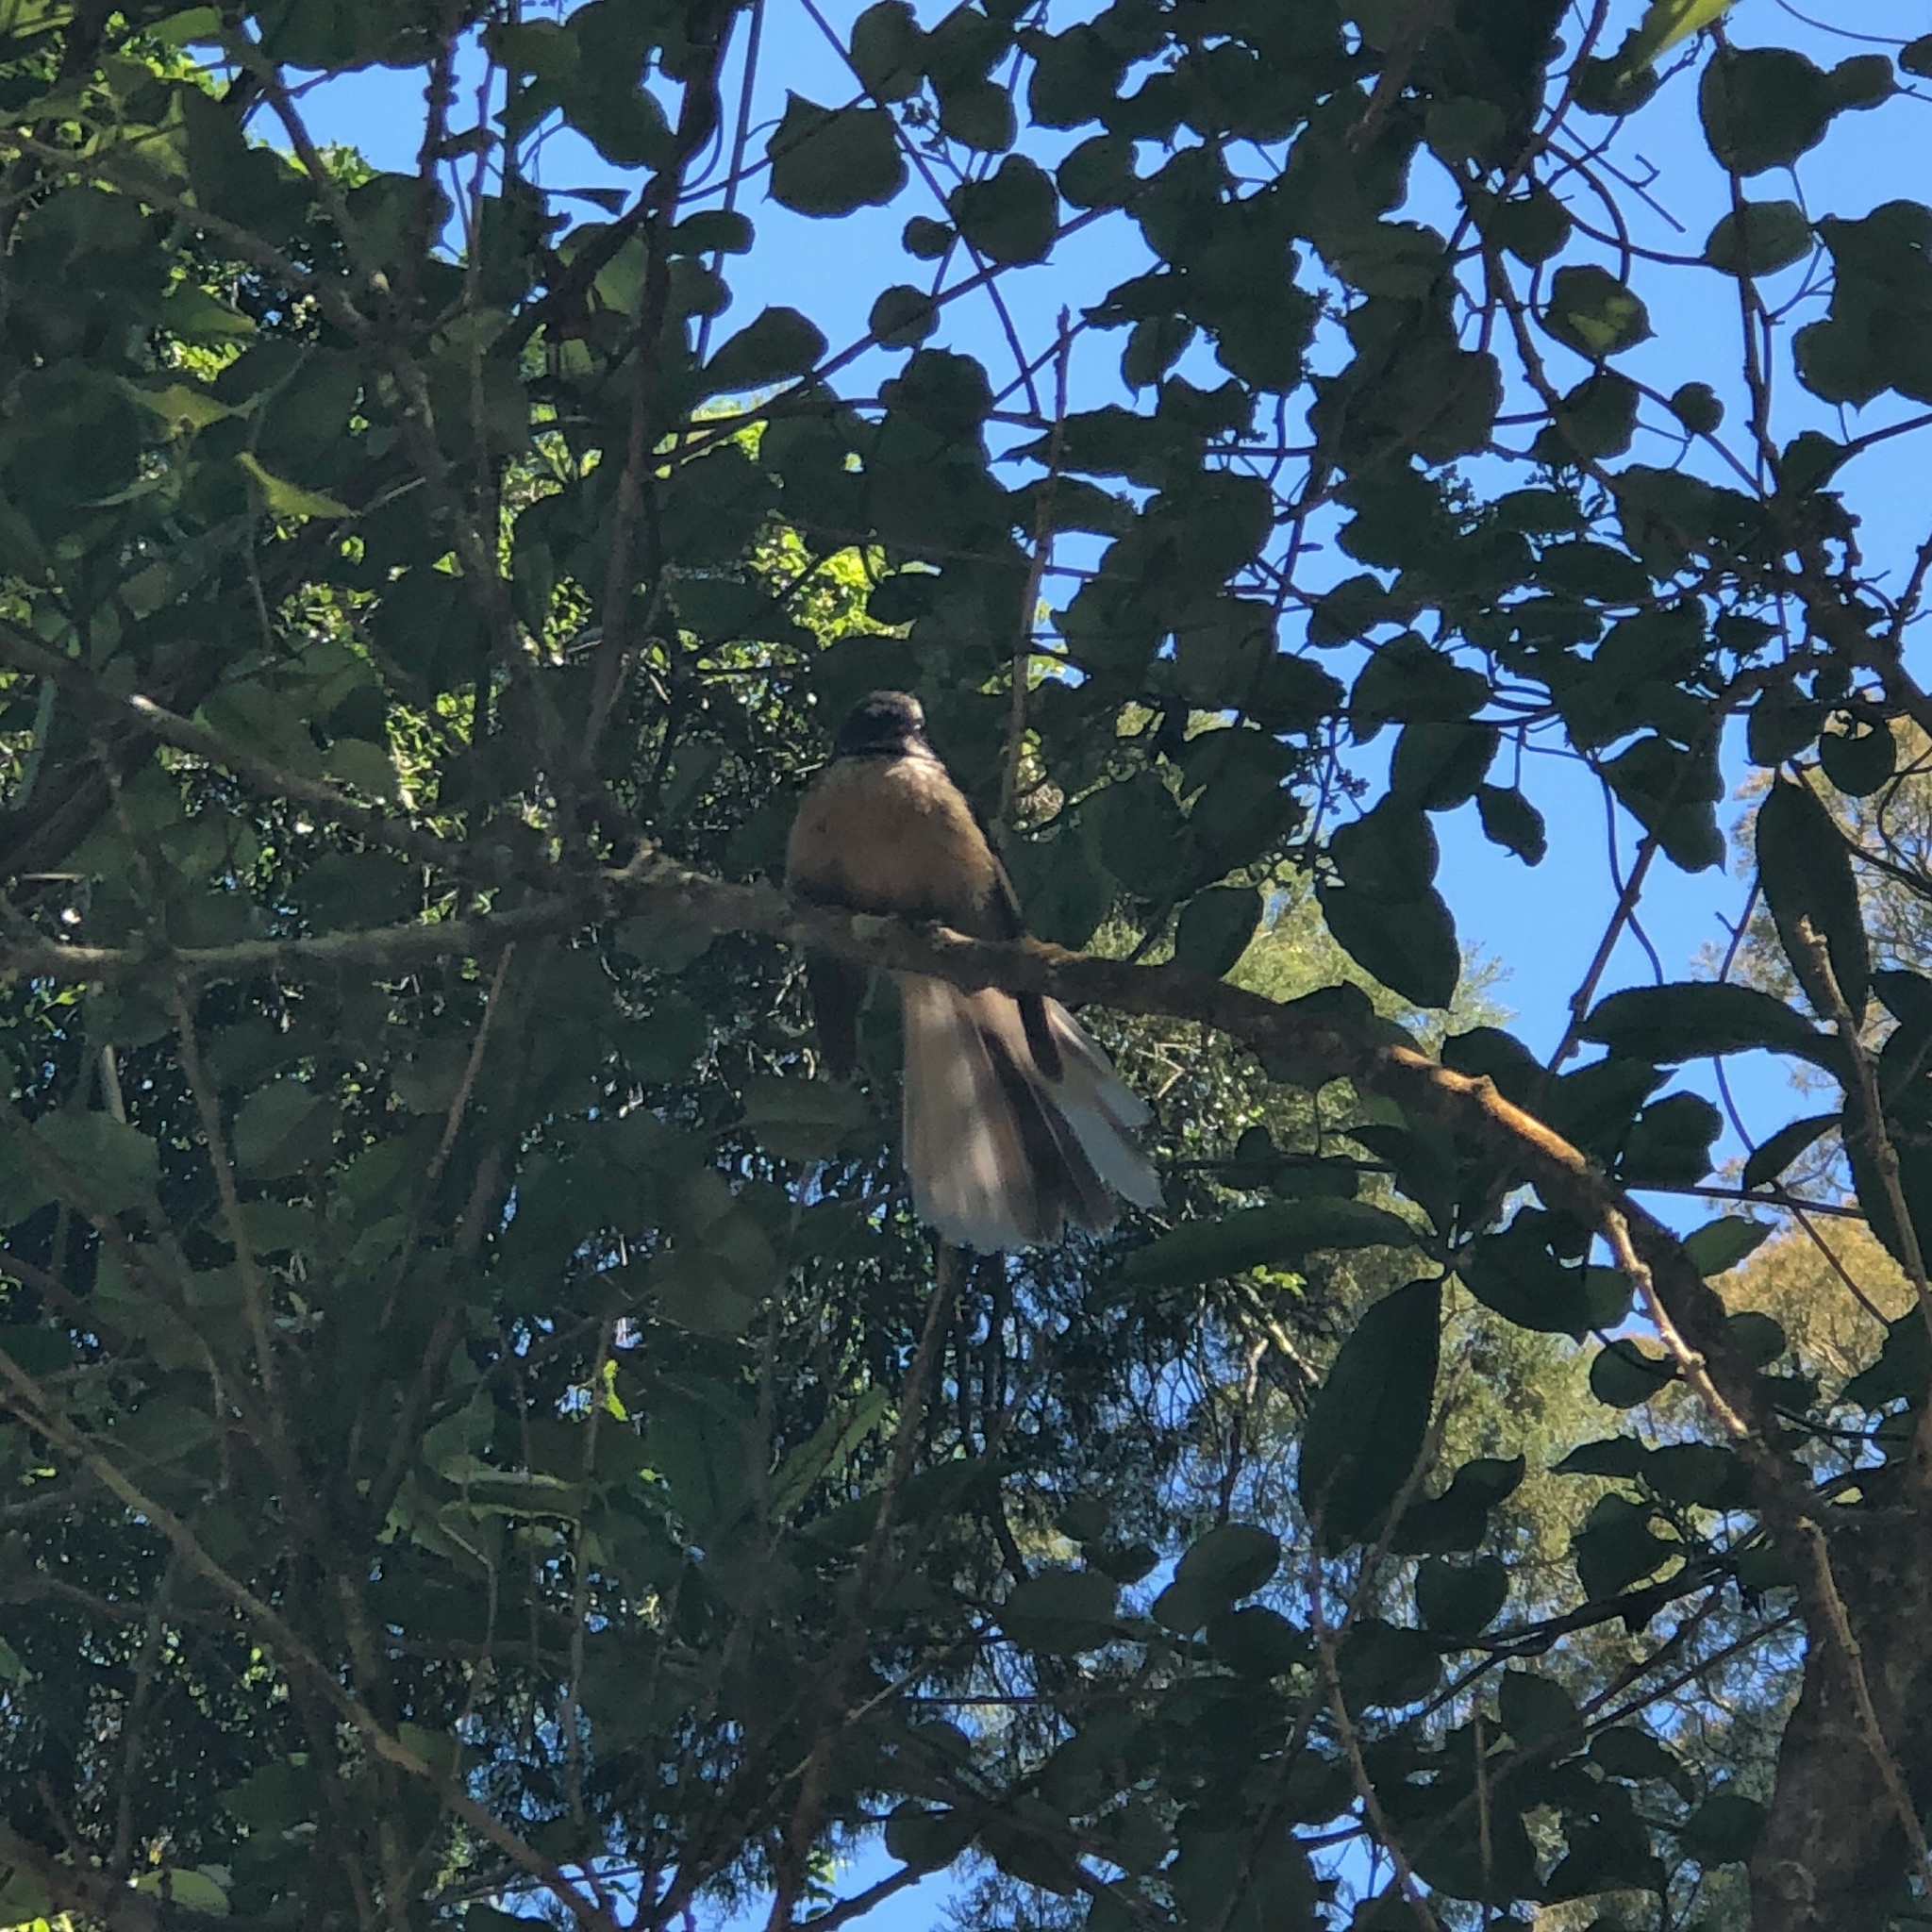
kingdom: Animalia
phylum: Chordata
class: Aves
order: Passeriformes
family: Rhipiduridae
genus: Rhipidura
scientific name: Rhipidura fuliginosa
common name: New zealand fantail
